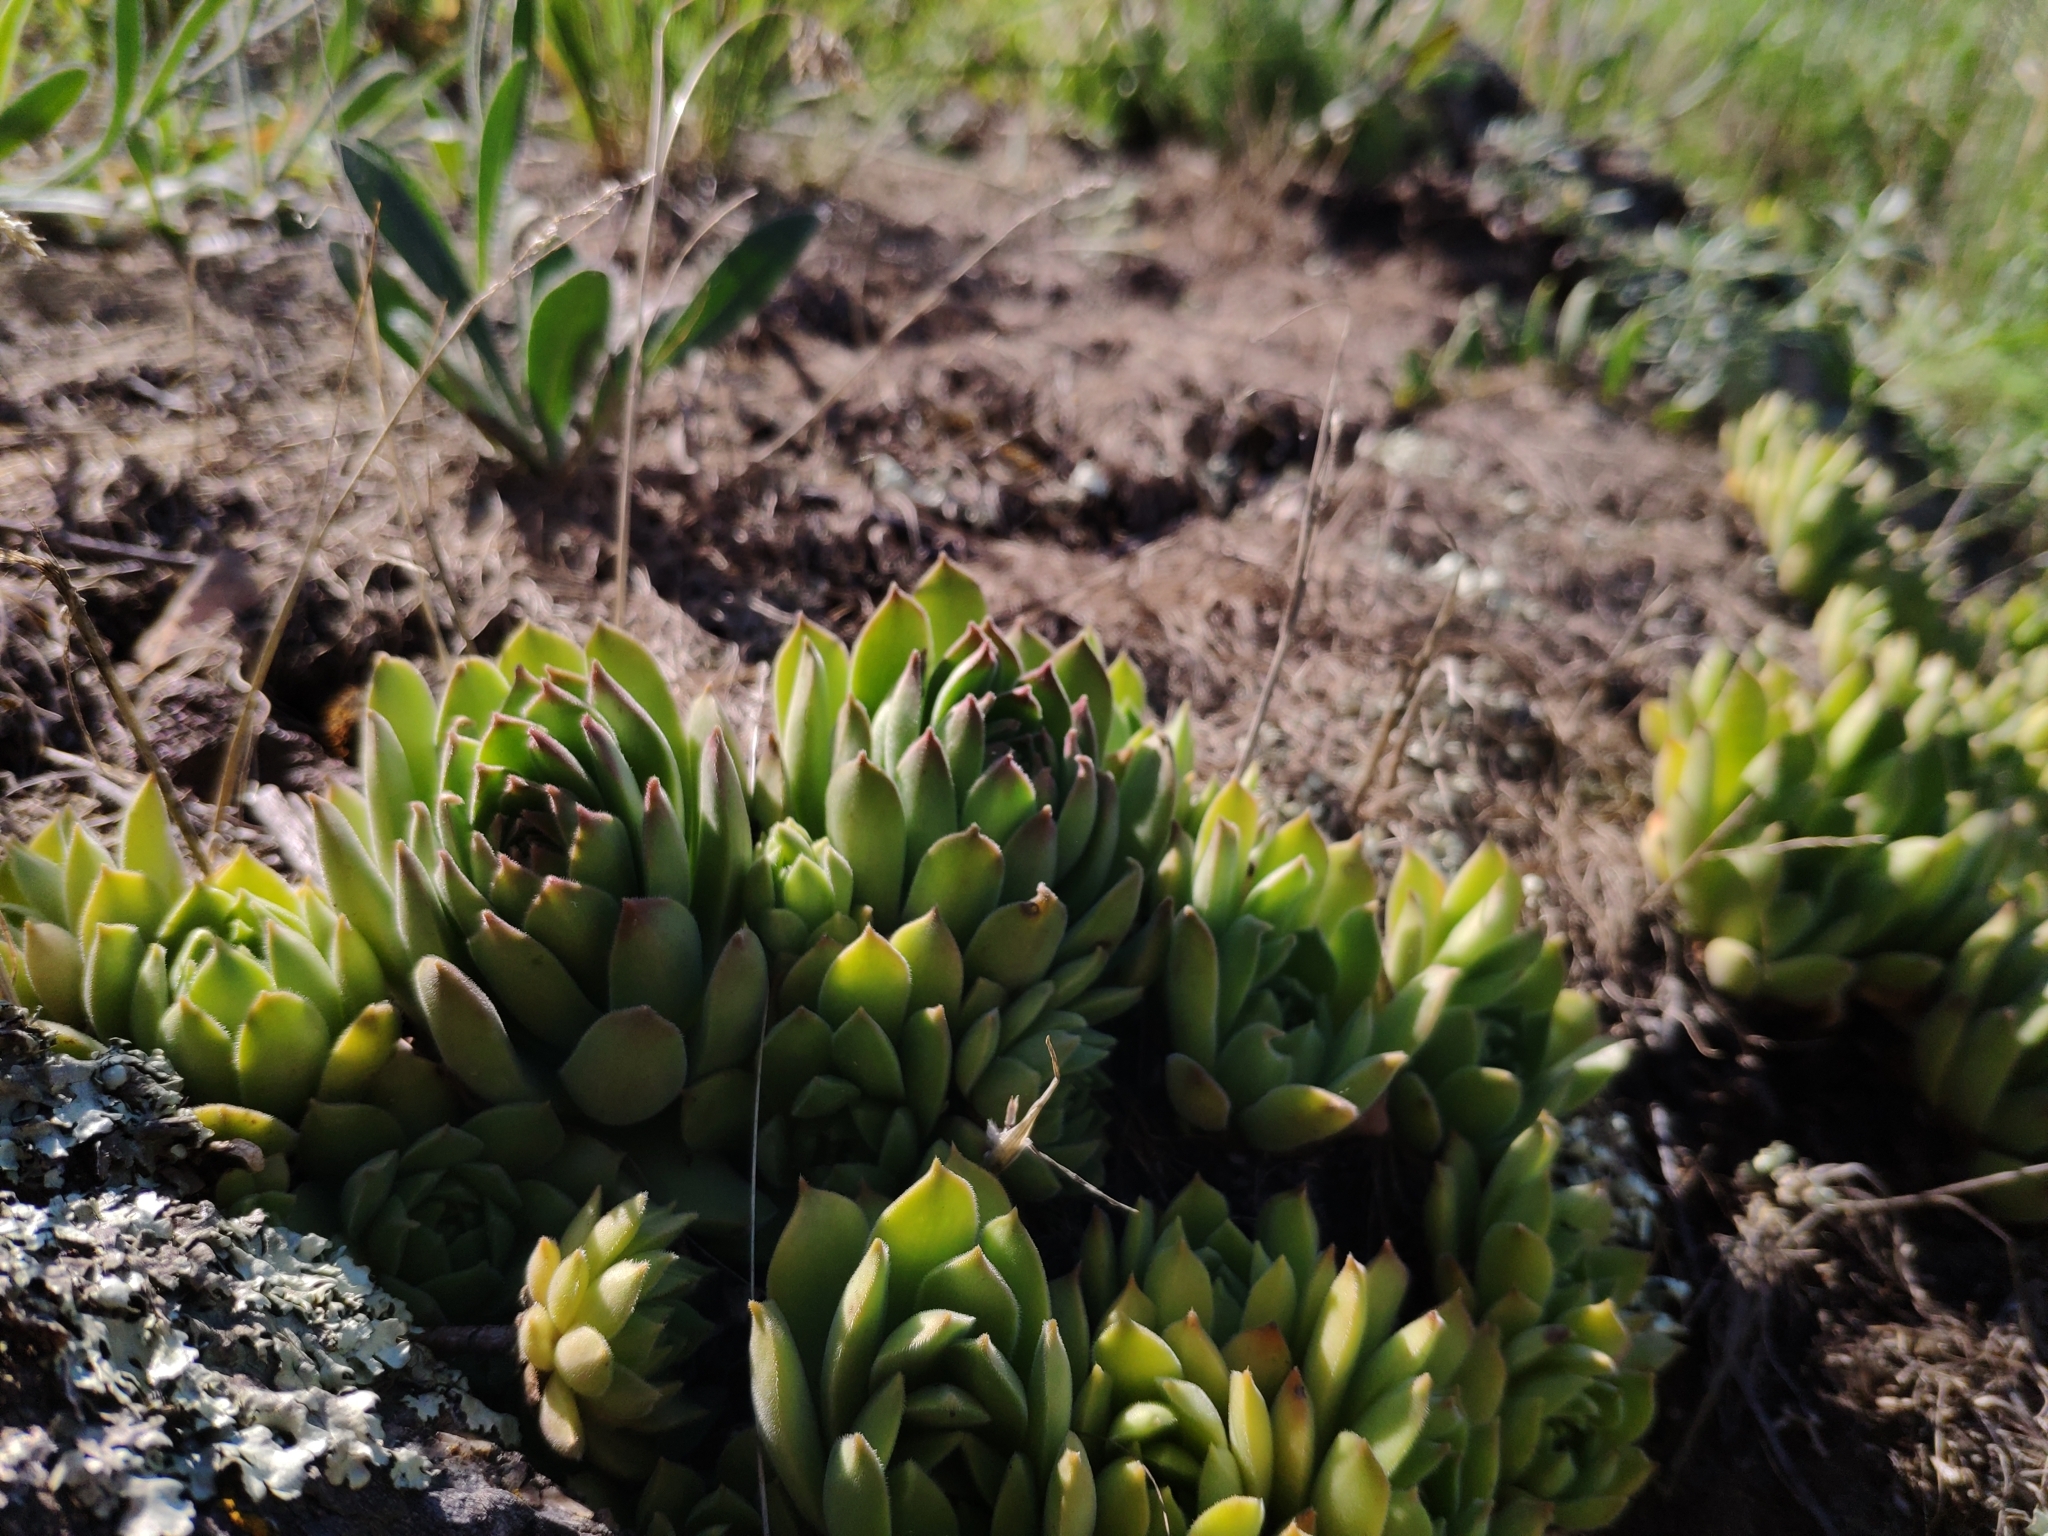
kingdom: Plantae
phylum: Tracheophyta
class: Magnoliopsida
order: Saxifragales
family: Crassulaceae
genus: Sempervivum
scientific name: Sempervivum ruthenicum
